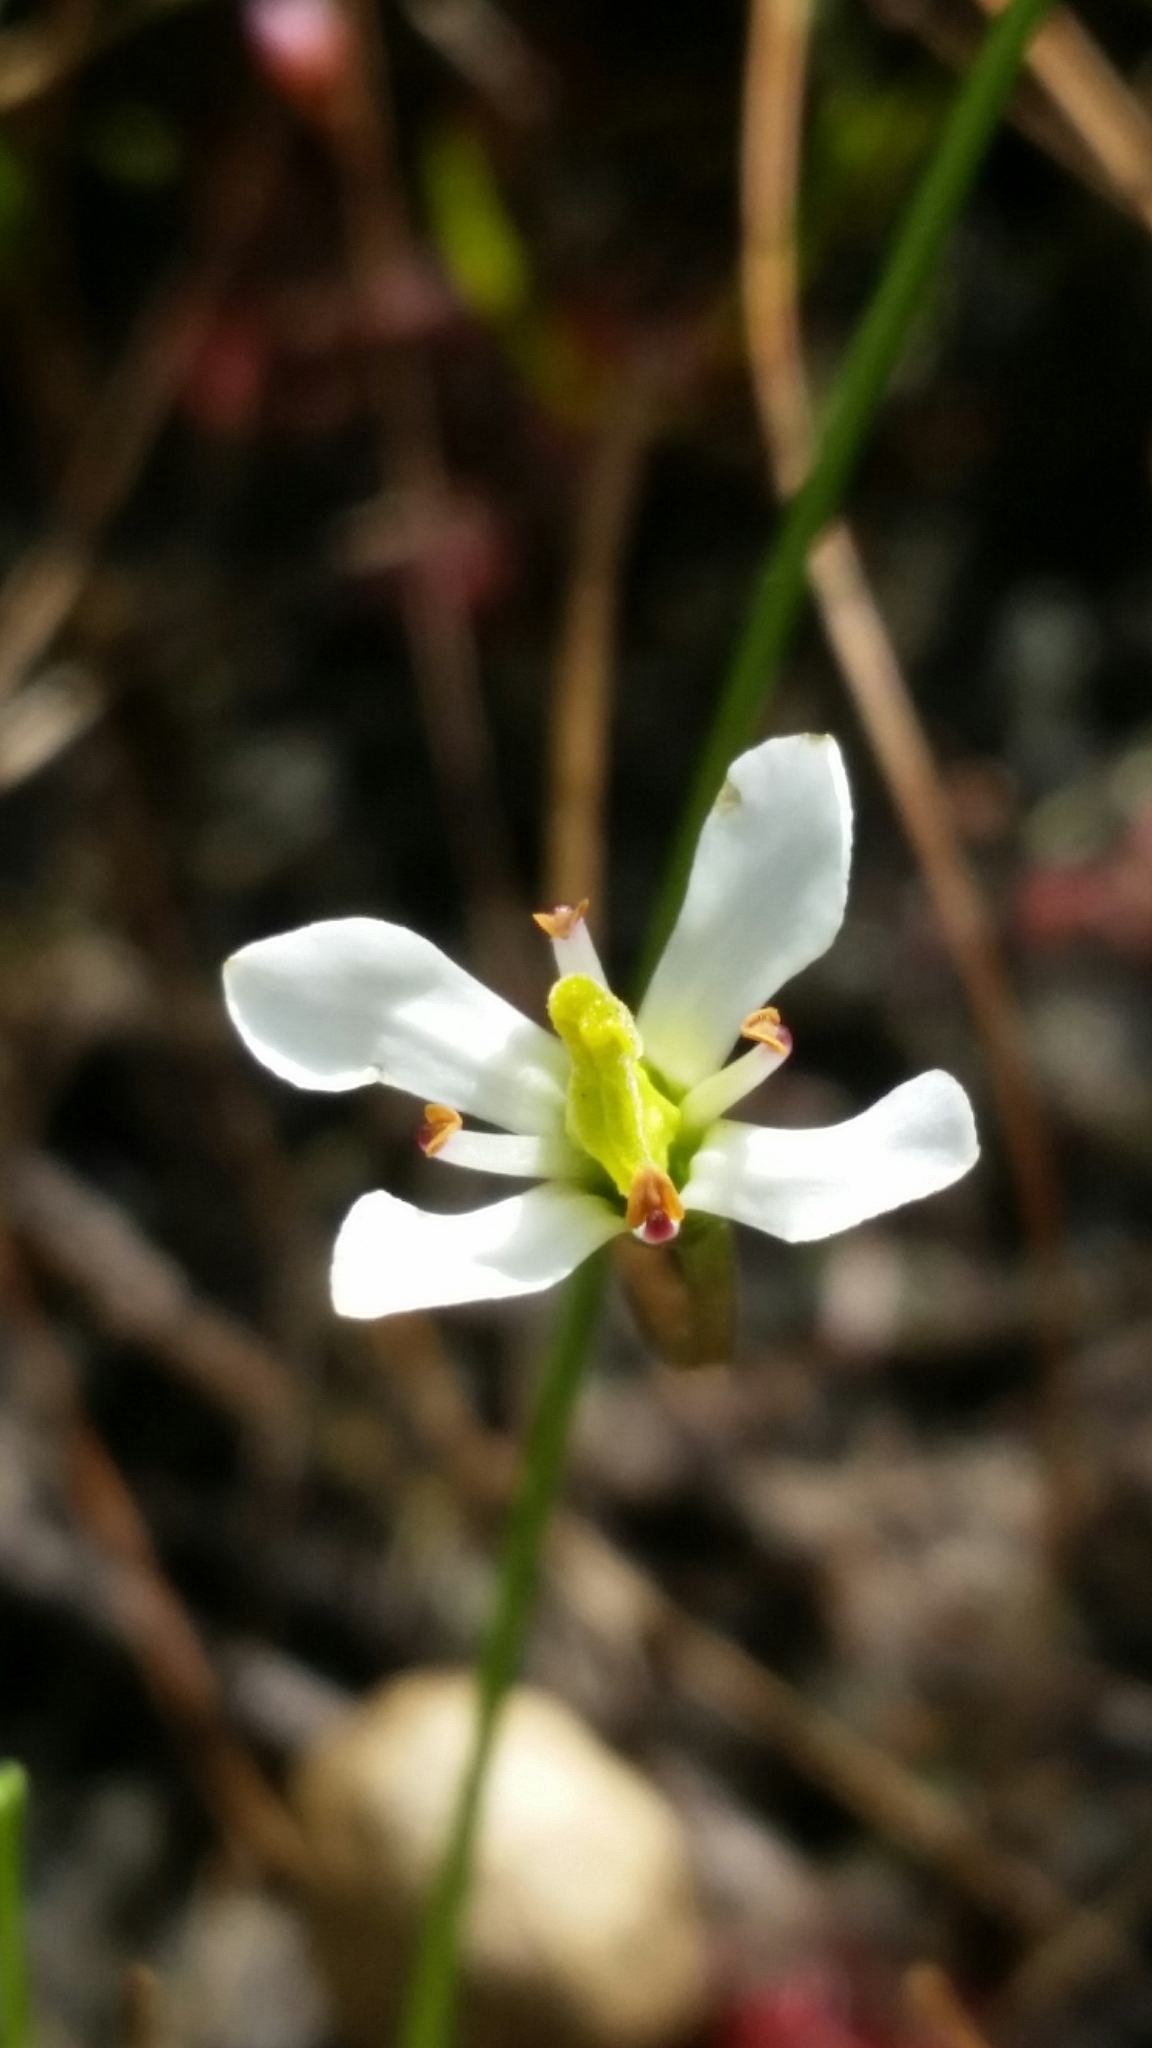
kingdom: Plantae
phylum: Tracheophyta
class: Magnoliopsida
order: Gentianales
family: Gentianaceae
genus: Bartonia
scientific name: Bartonia verna
